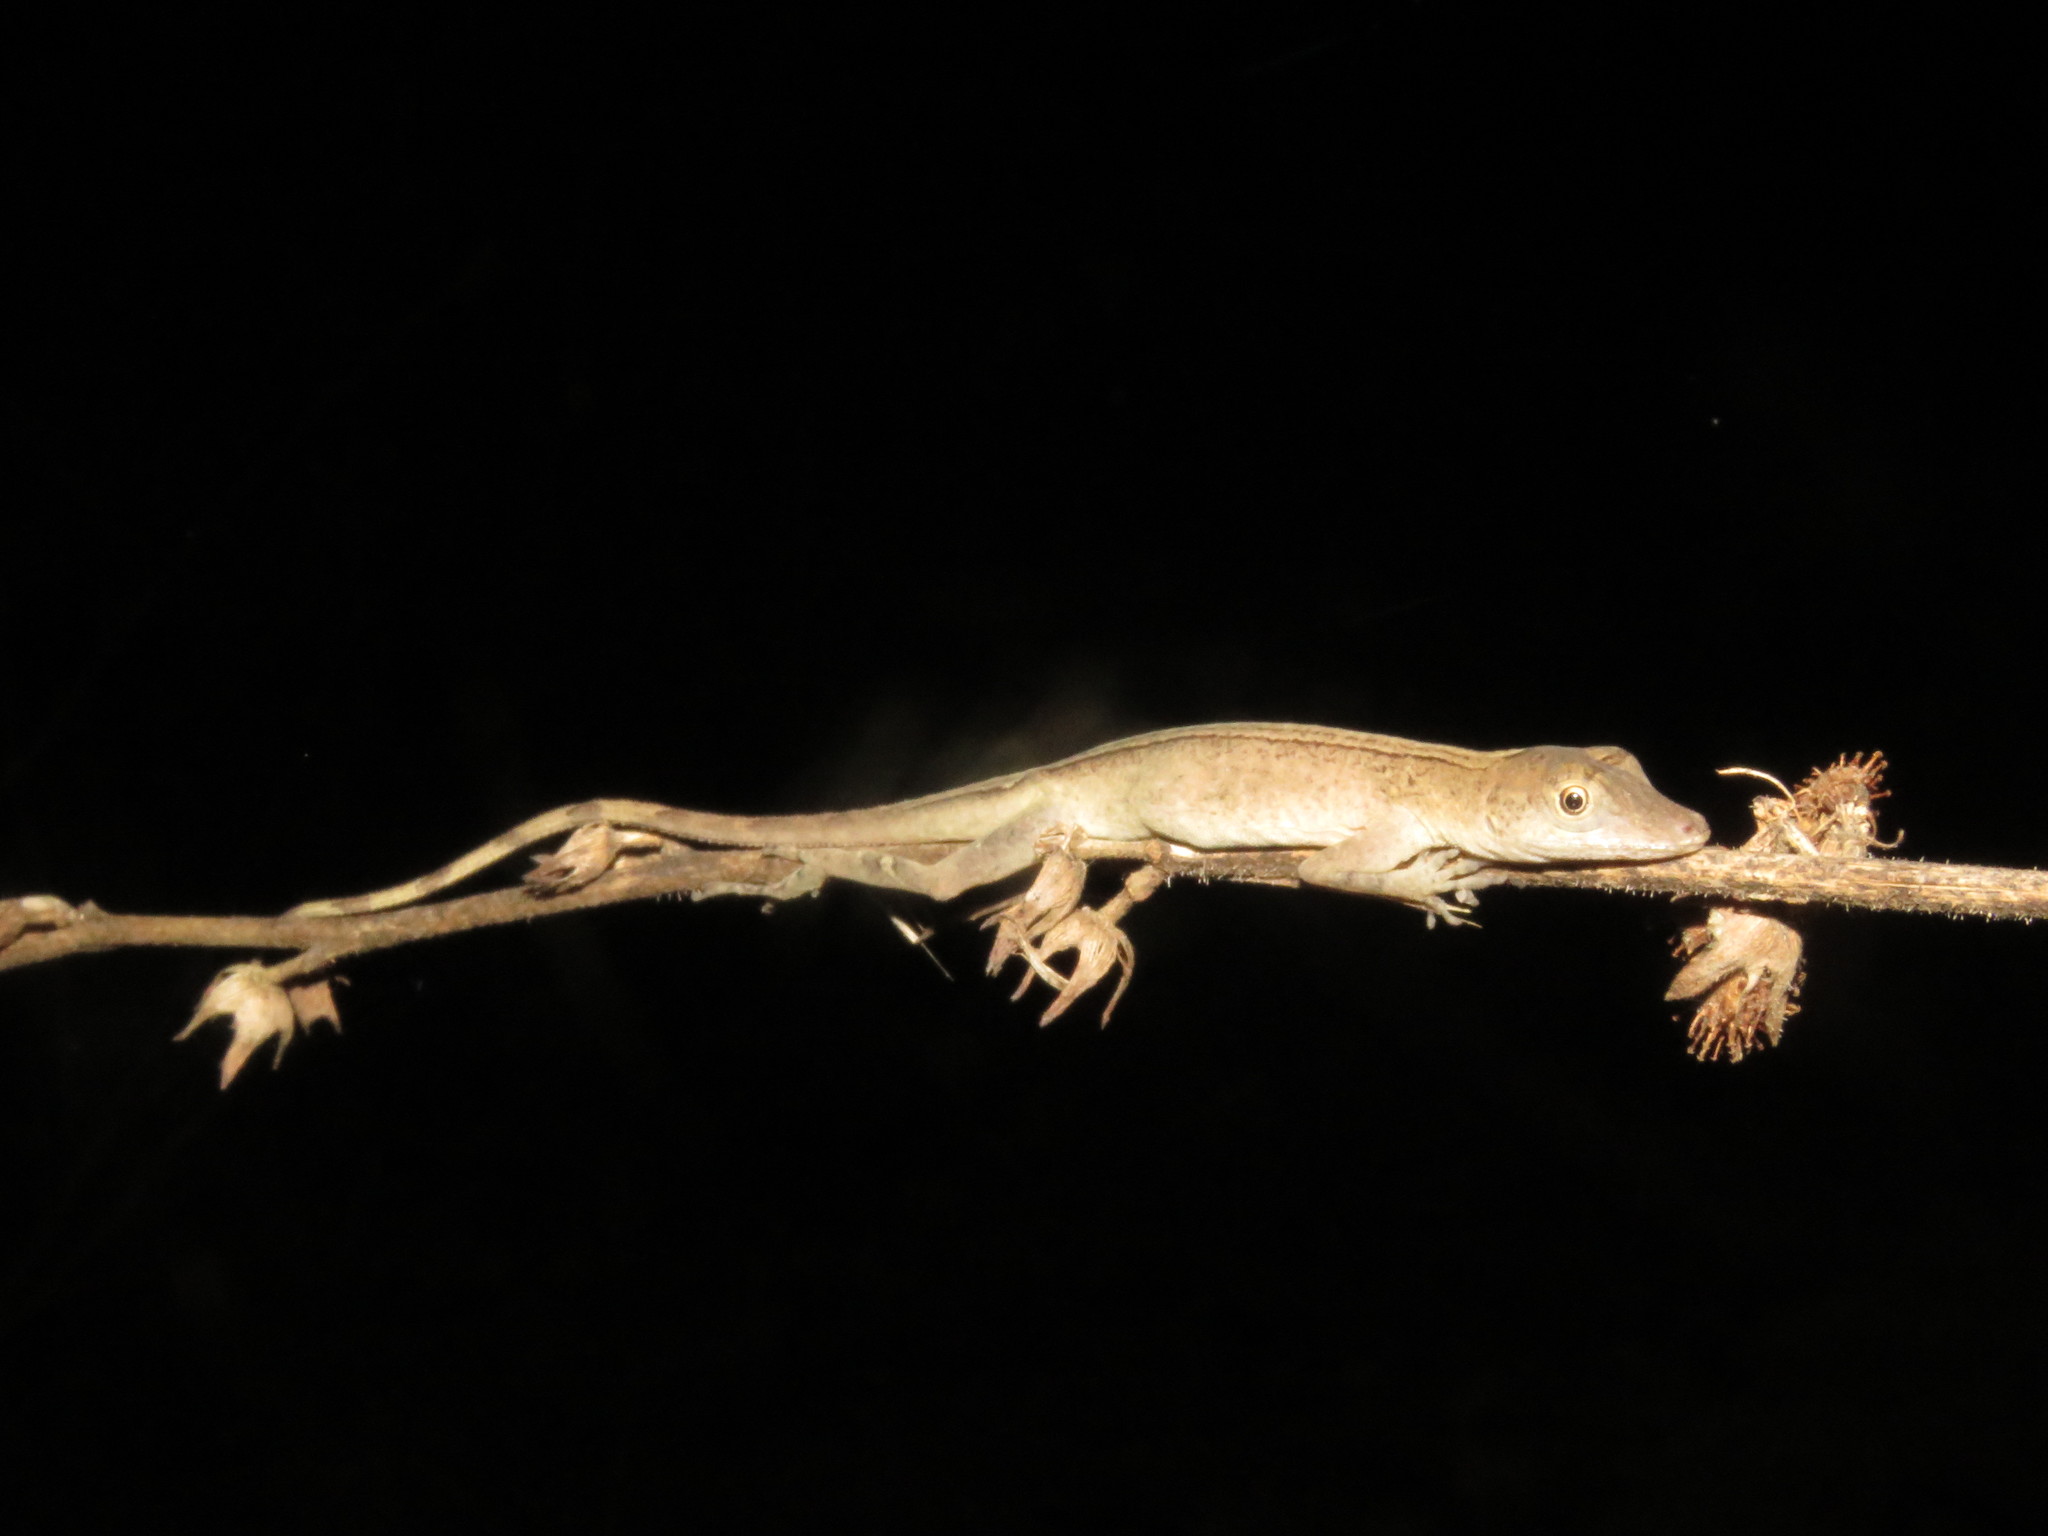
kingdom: Animalia
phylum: Chordata
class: Squamata
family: Dactyloidae
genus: Anolis
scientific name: Anolis fuscoauratus
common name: Brown-eared anole
